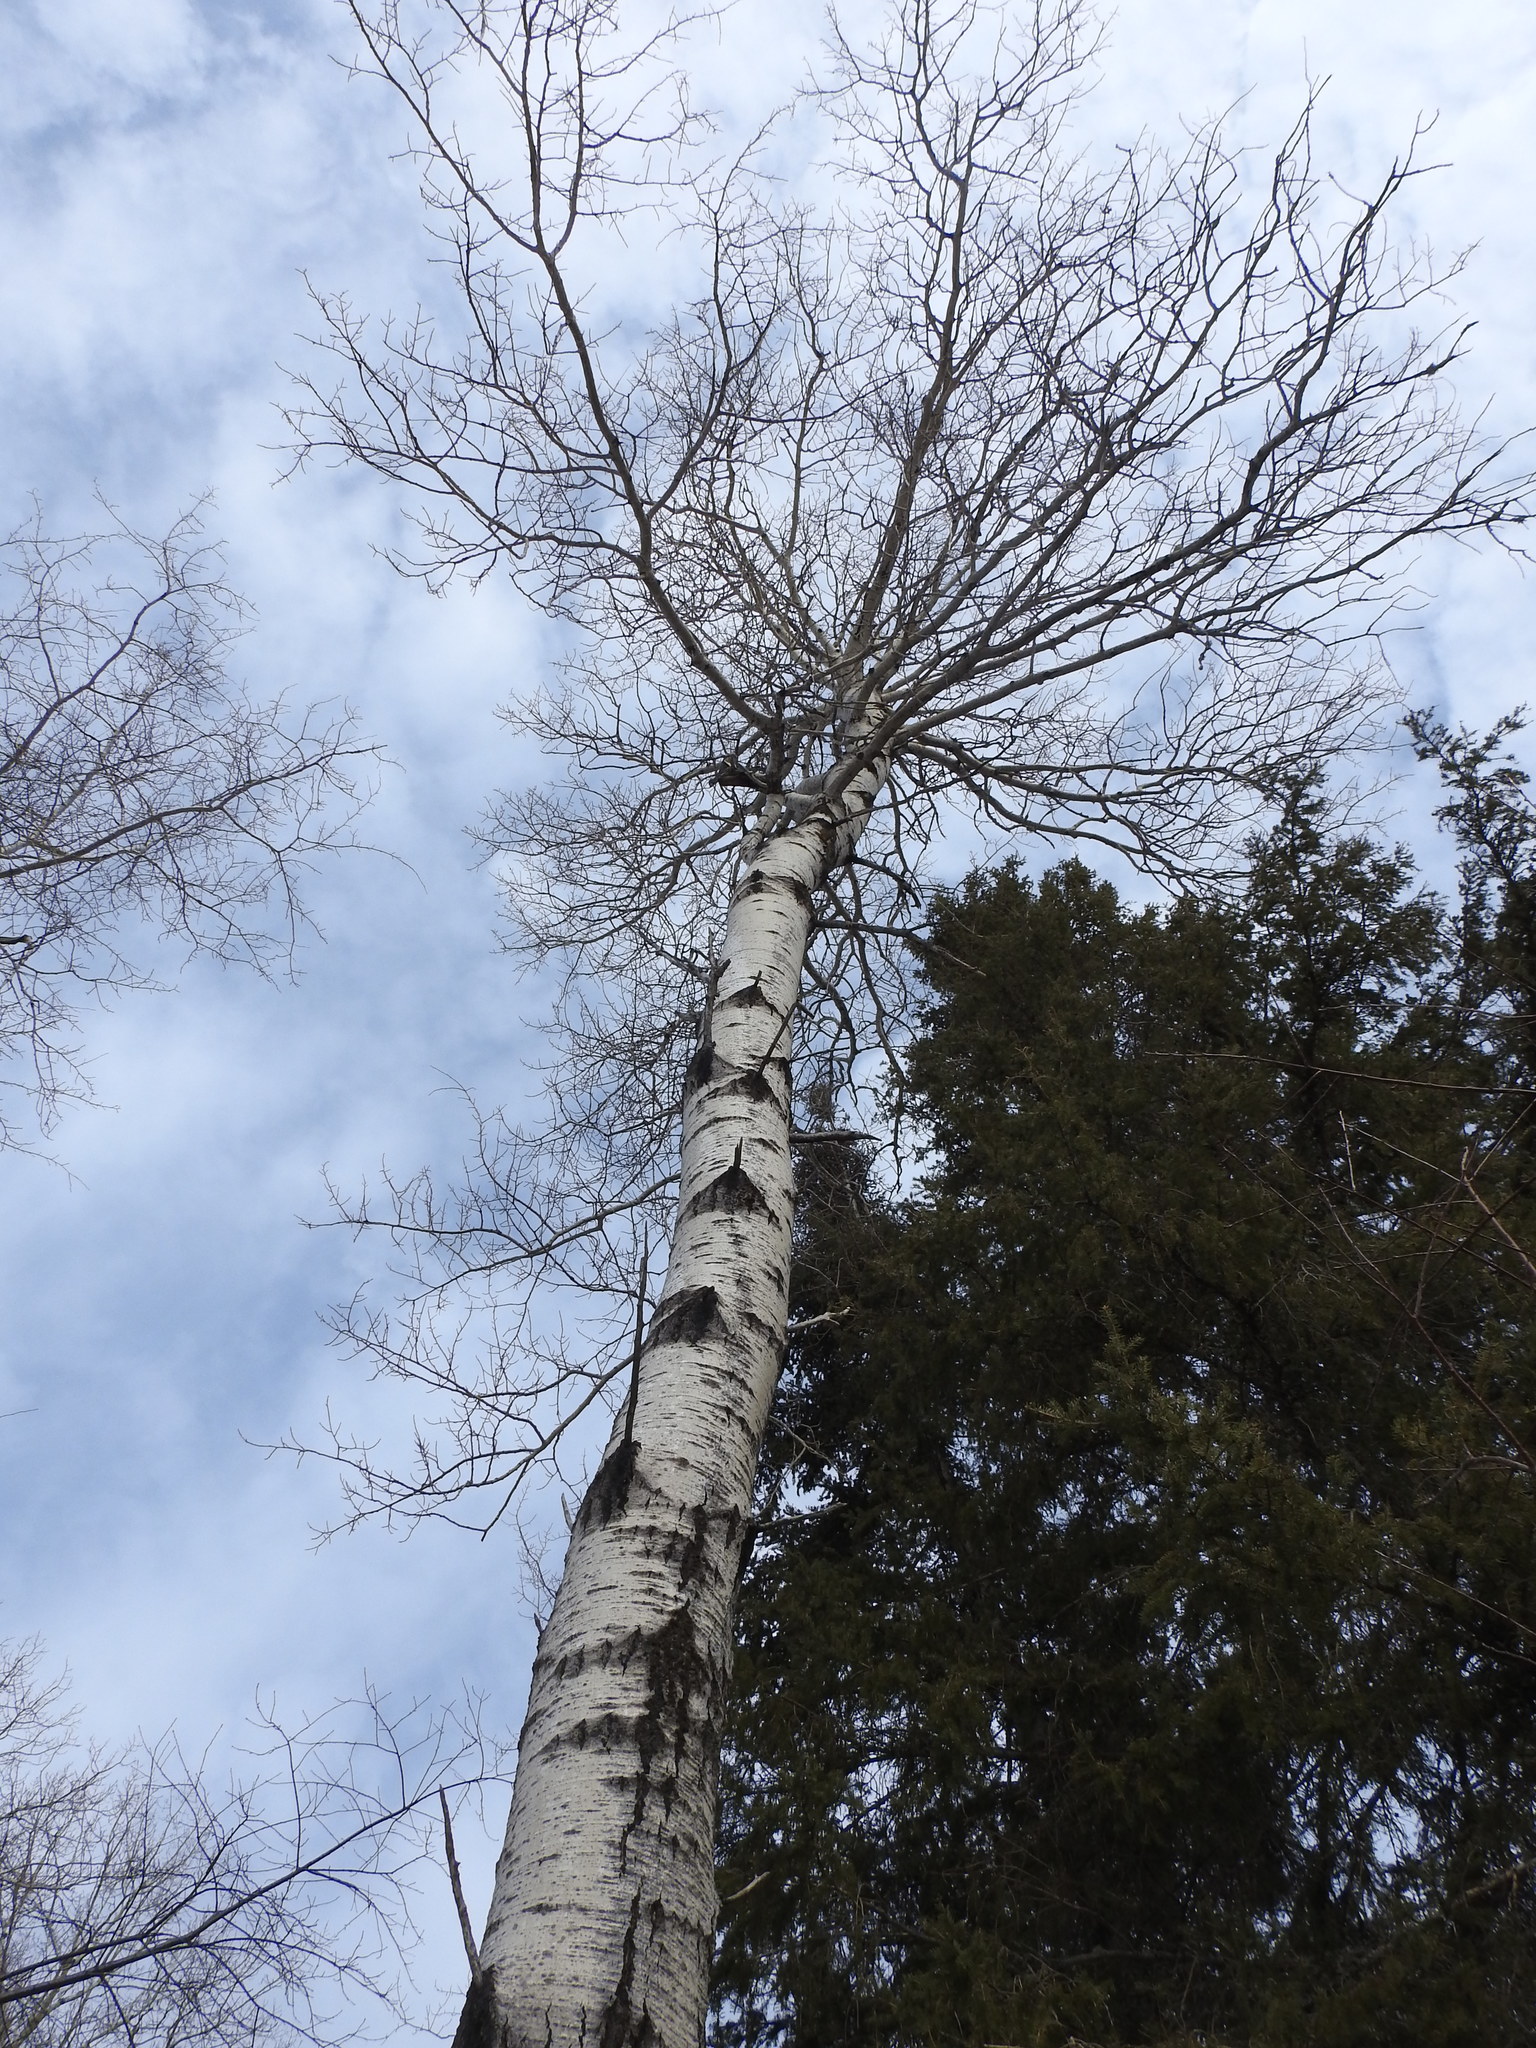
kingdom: Plantae
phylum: Tracheophyta
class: Magnoliopsida
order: Malpighiales
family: Salicaceae
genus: Populus
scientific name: Populus tremuloides
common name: Quaking aspen
